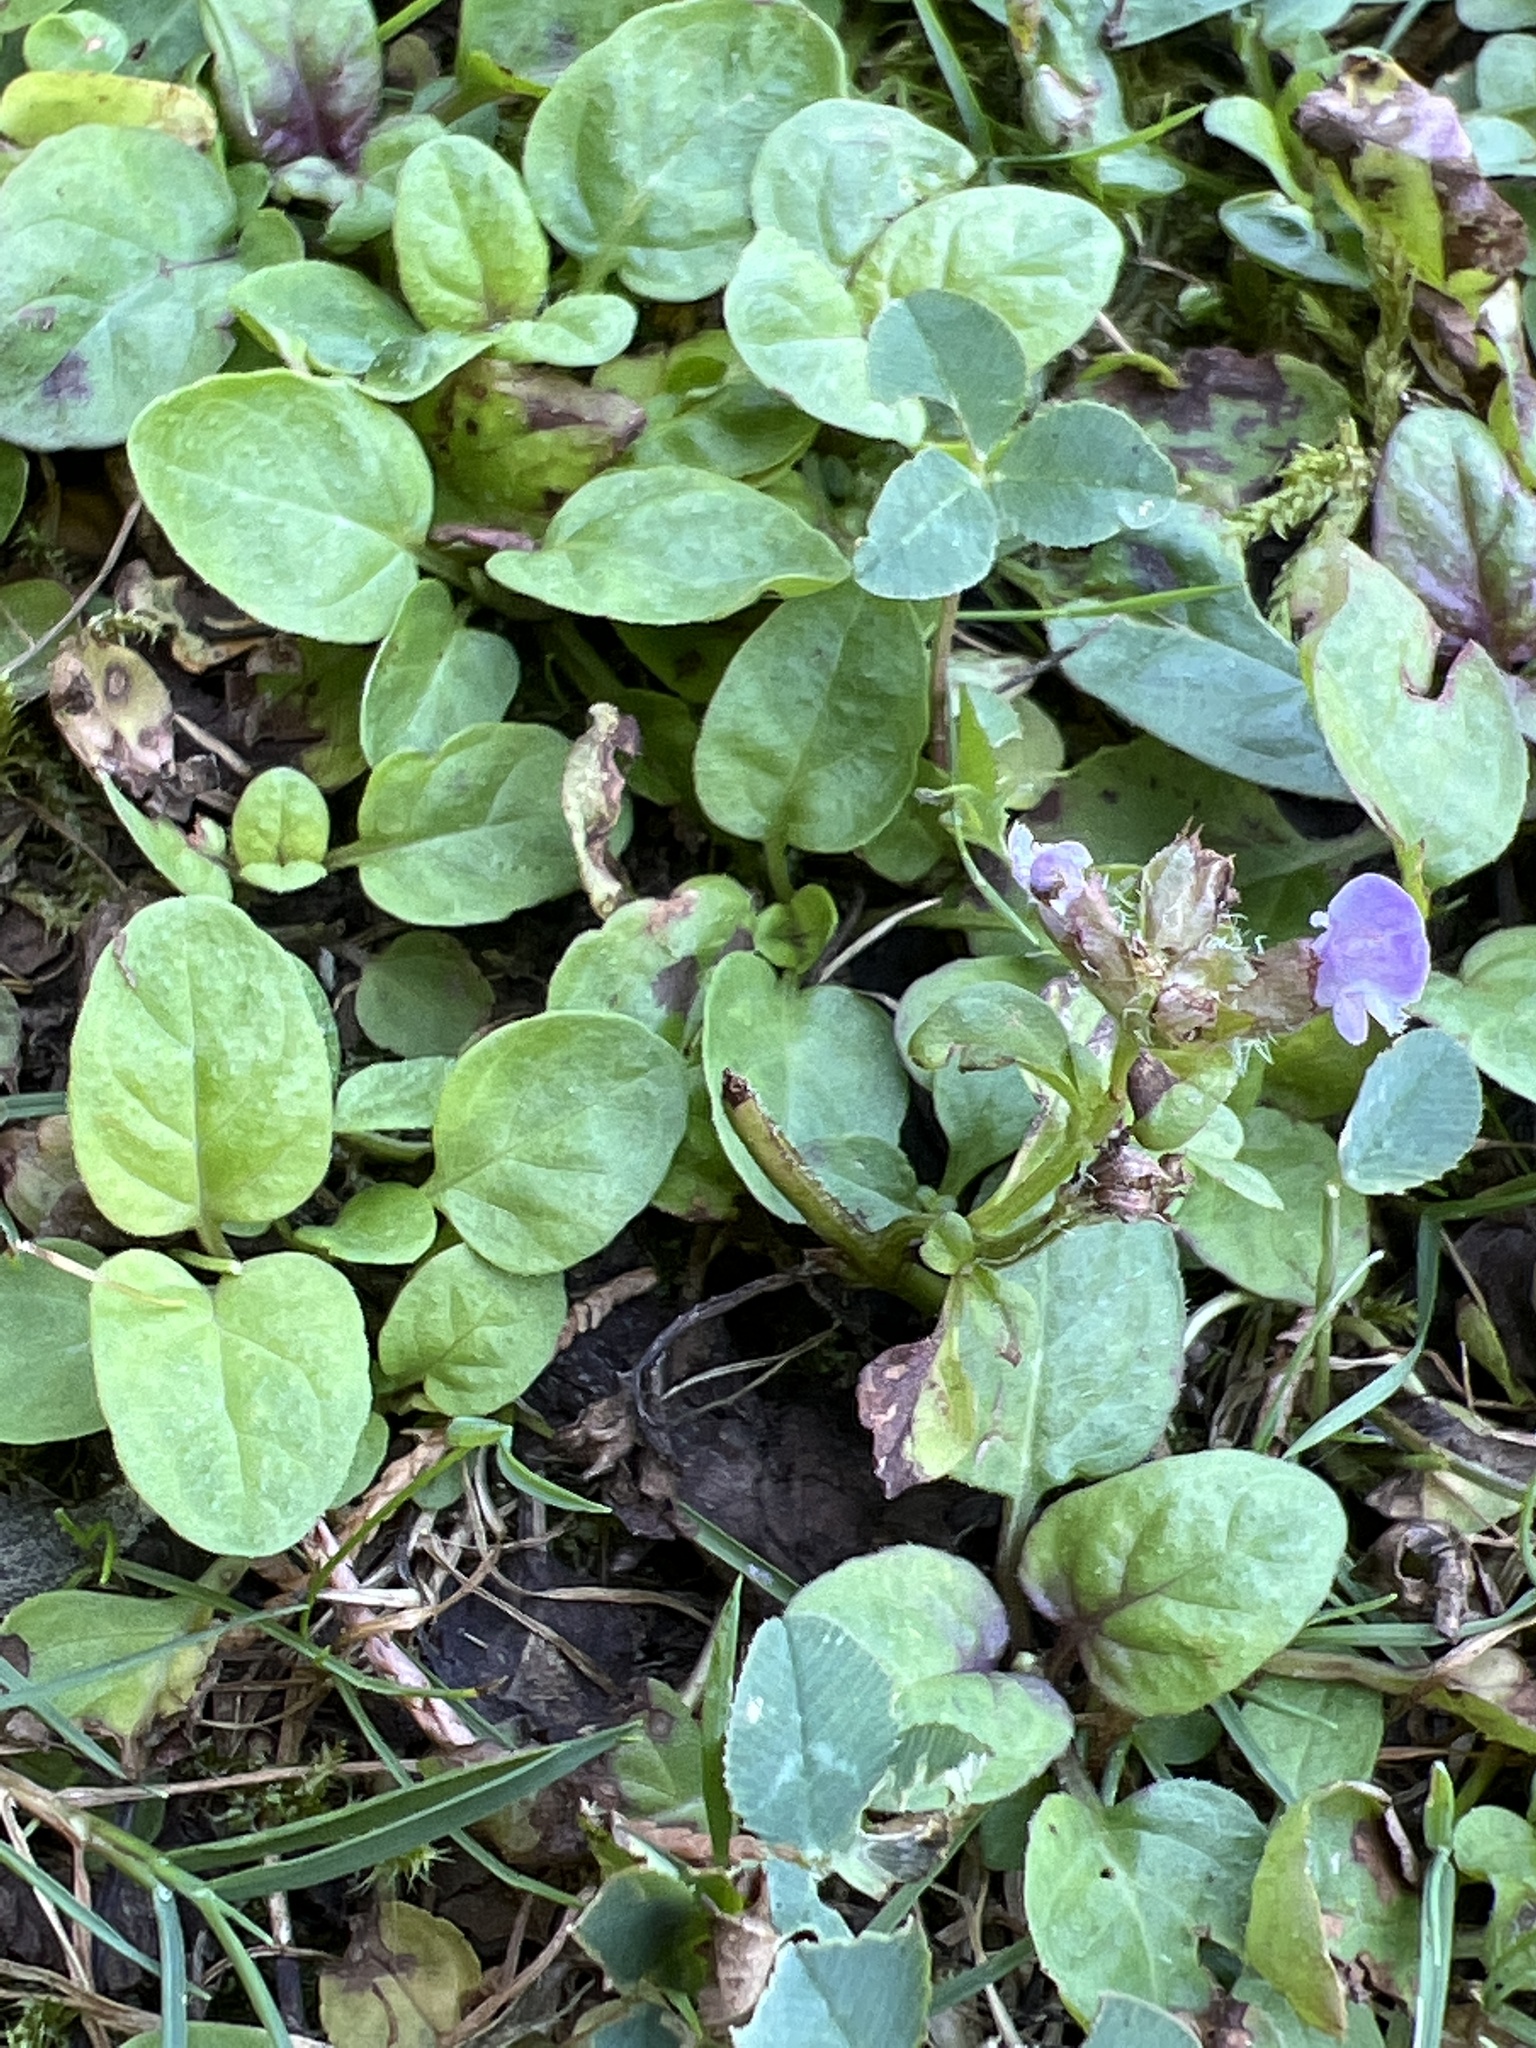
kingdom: Plantae
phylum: Tracheophyta
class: Magnoliopsida
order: Lamiales
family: Lamiaceae
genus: Prunella
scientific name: Prunella vulgaris
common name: Heal-all
